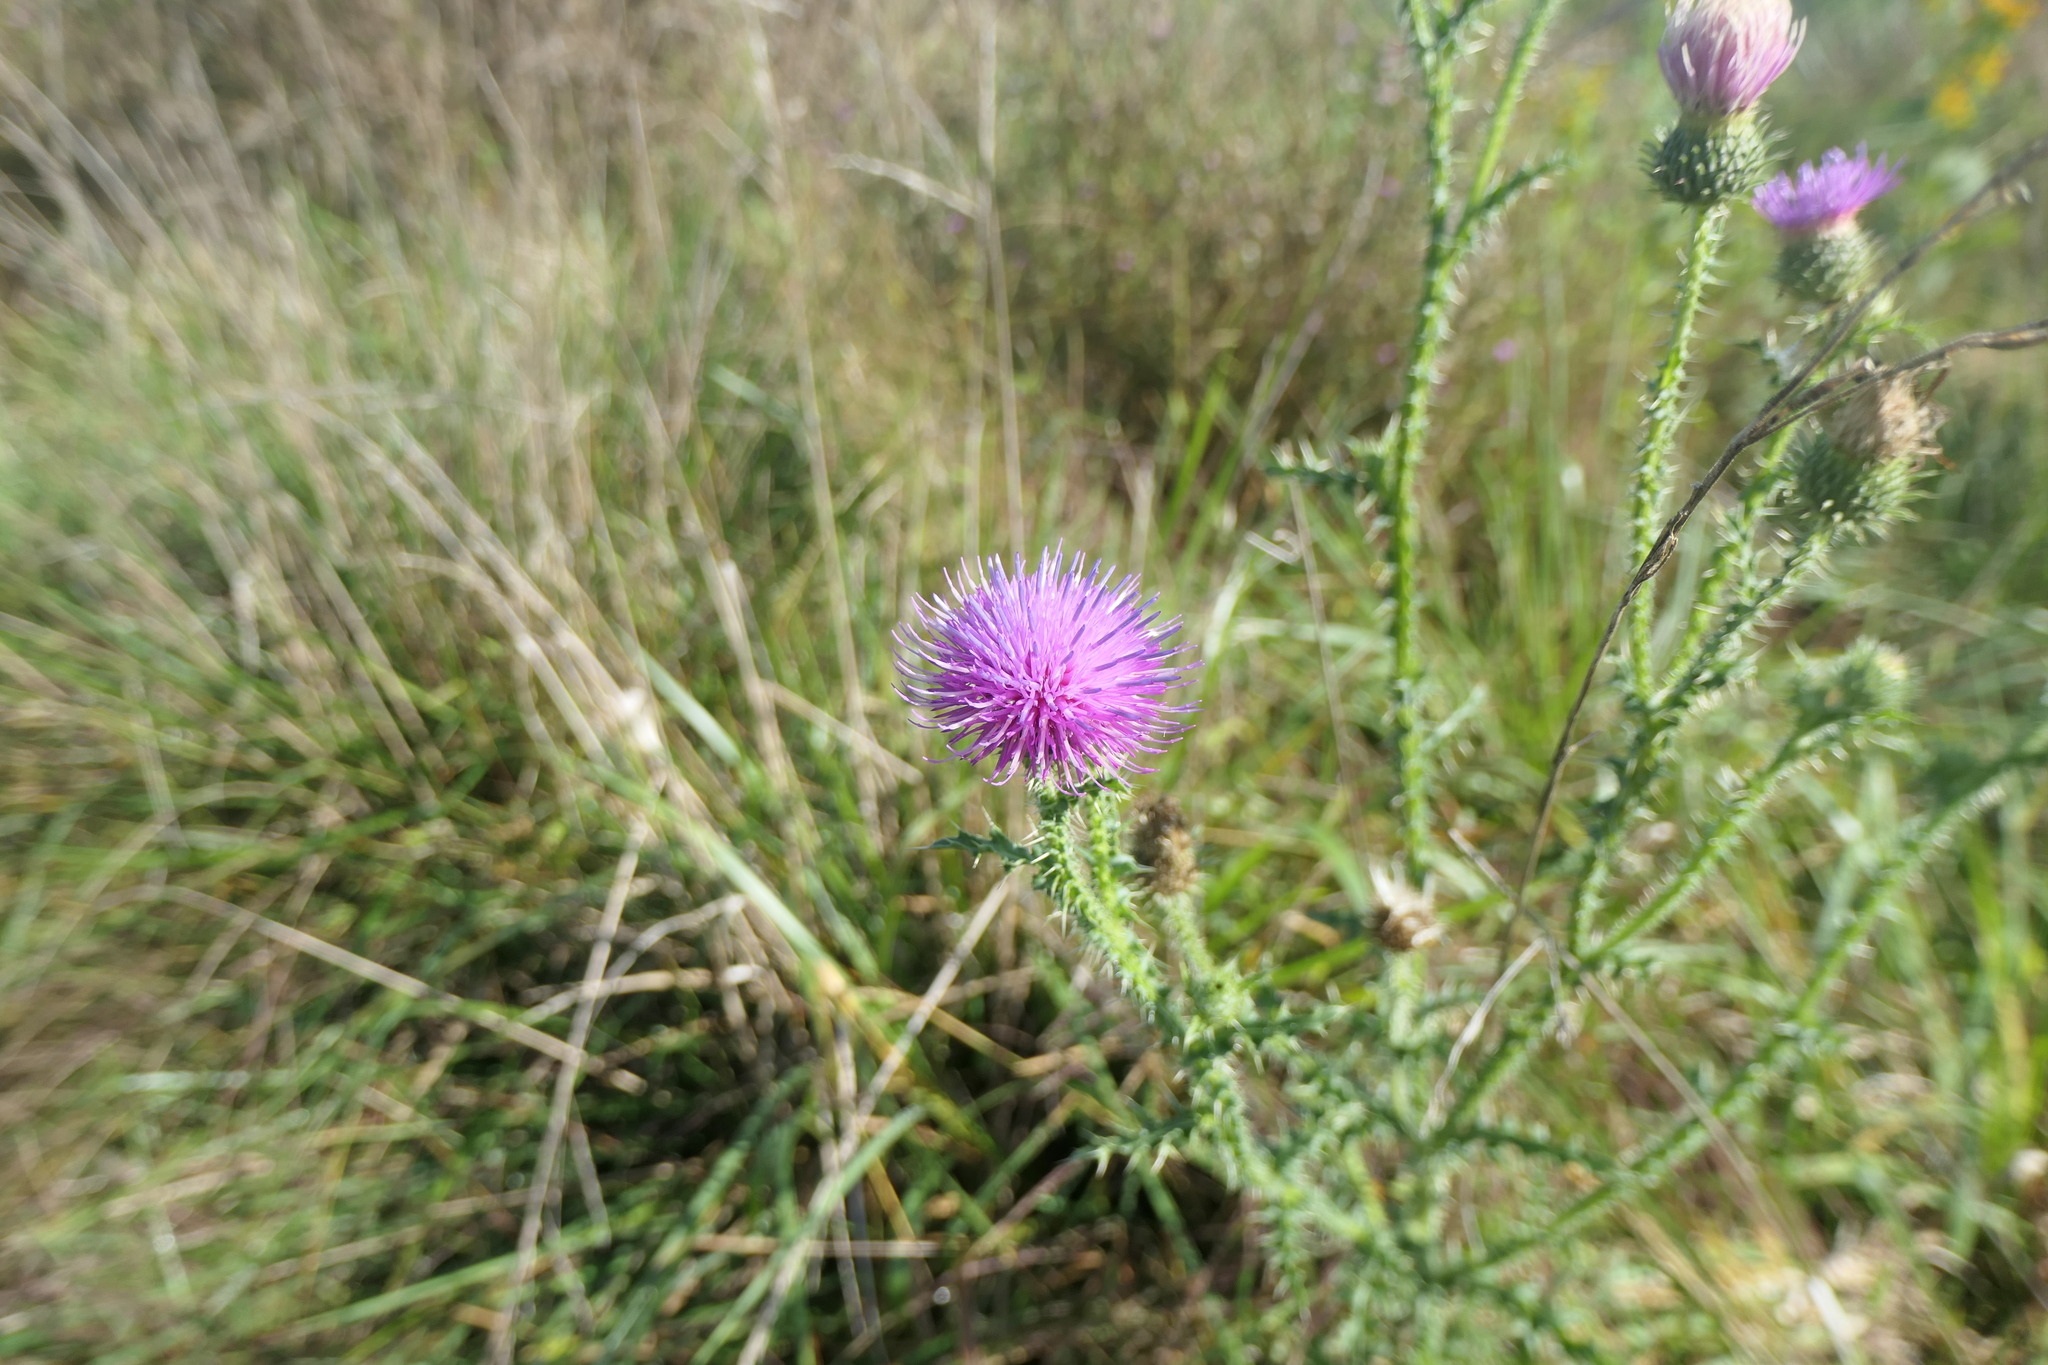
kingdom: Plantae
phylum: Tracheophyta
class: Magnoliopsida
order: Asterales
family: Asteraceae
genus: Carduus
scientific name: Carduus acanthoides
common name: Plumeless thistle
